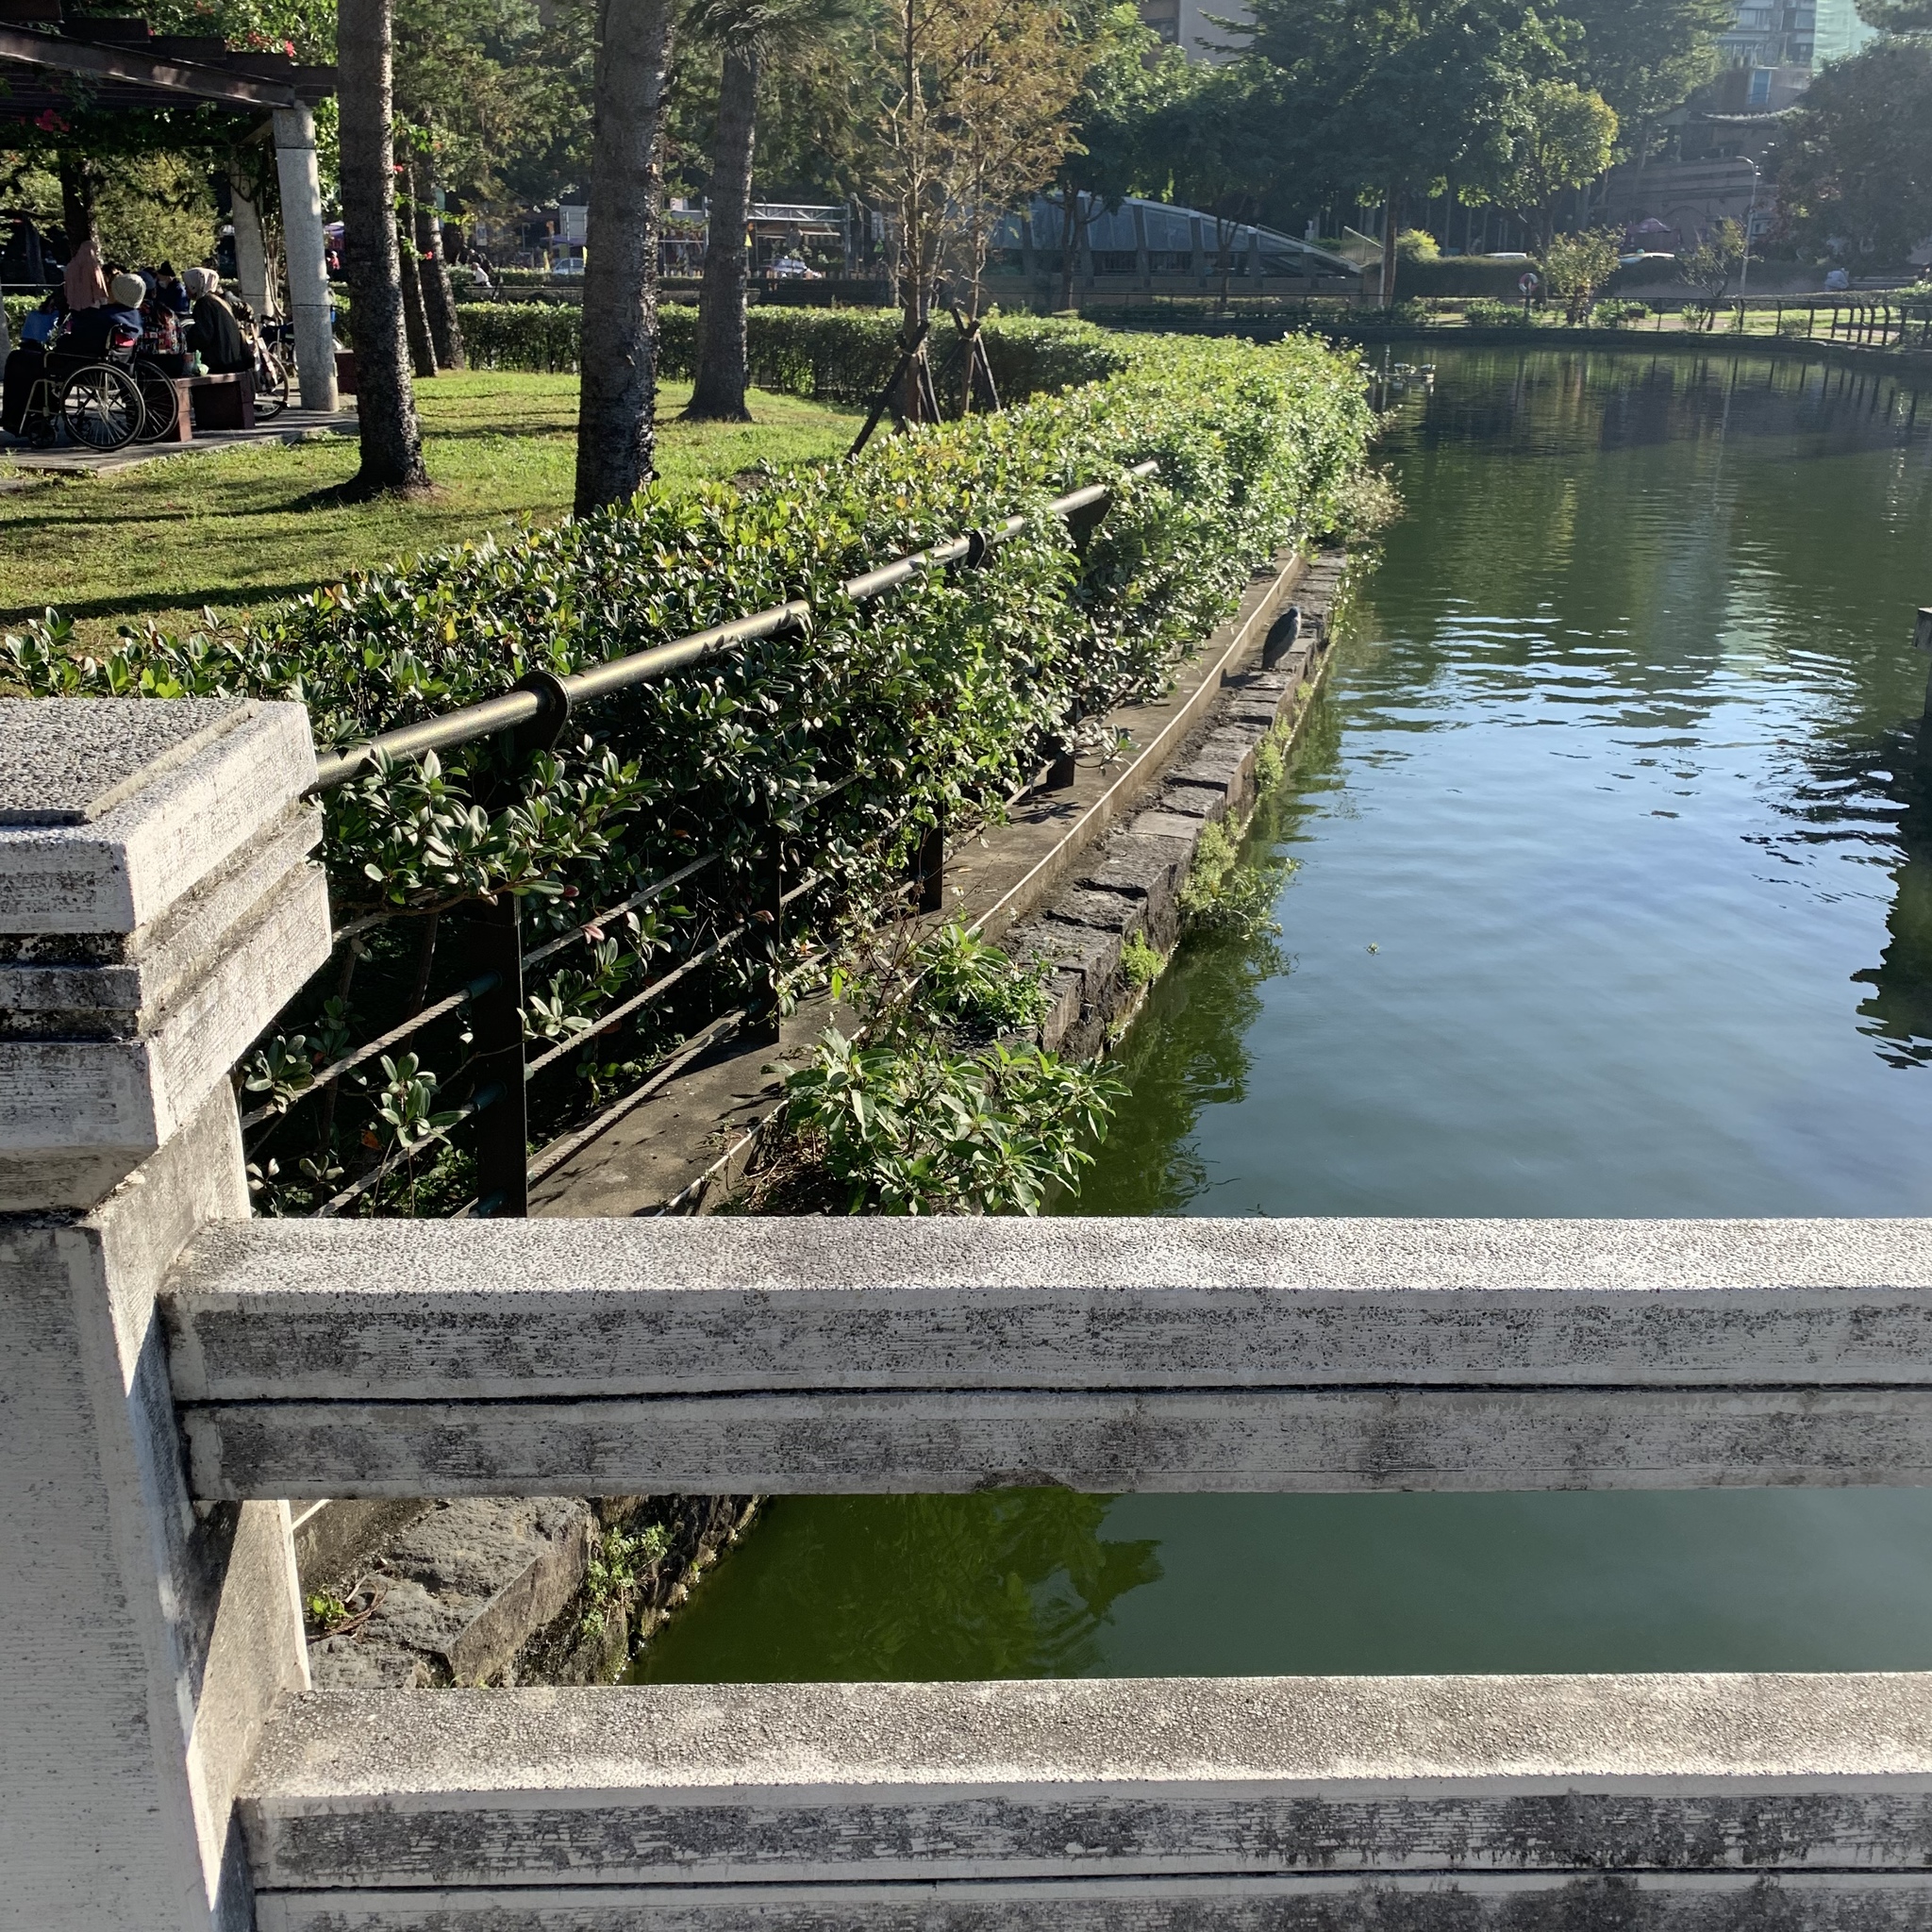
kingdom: Animalia
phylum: Chordata
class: Aves
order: Pelecaniformes
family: Ardeidae
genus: Nycticorax
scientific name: Nycticorax nycticorax
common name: Black-crowned night heron
